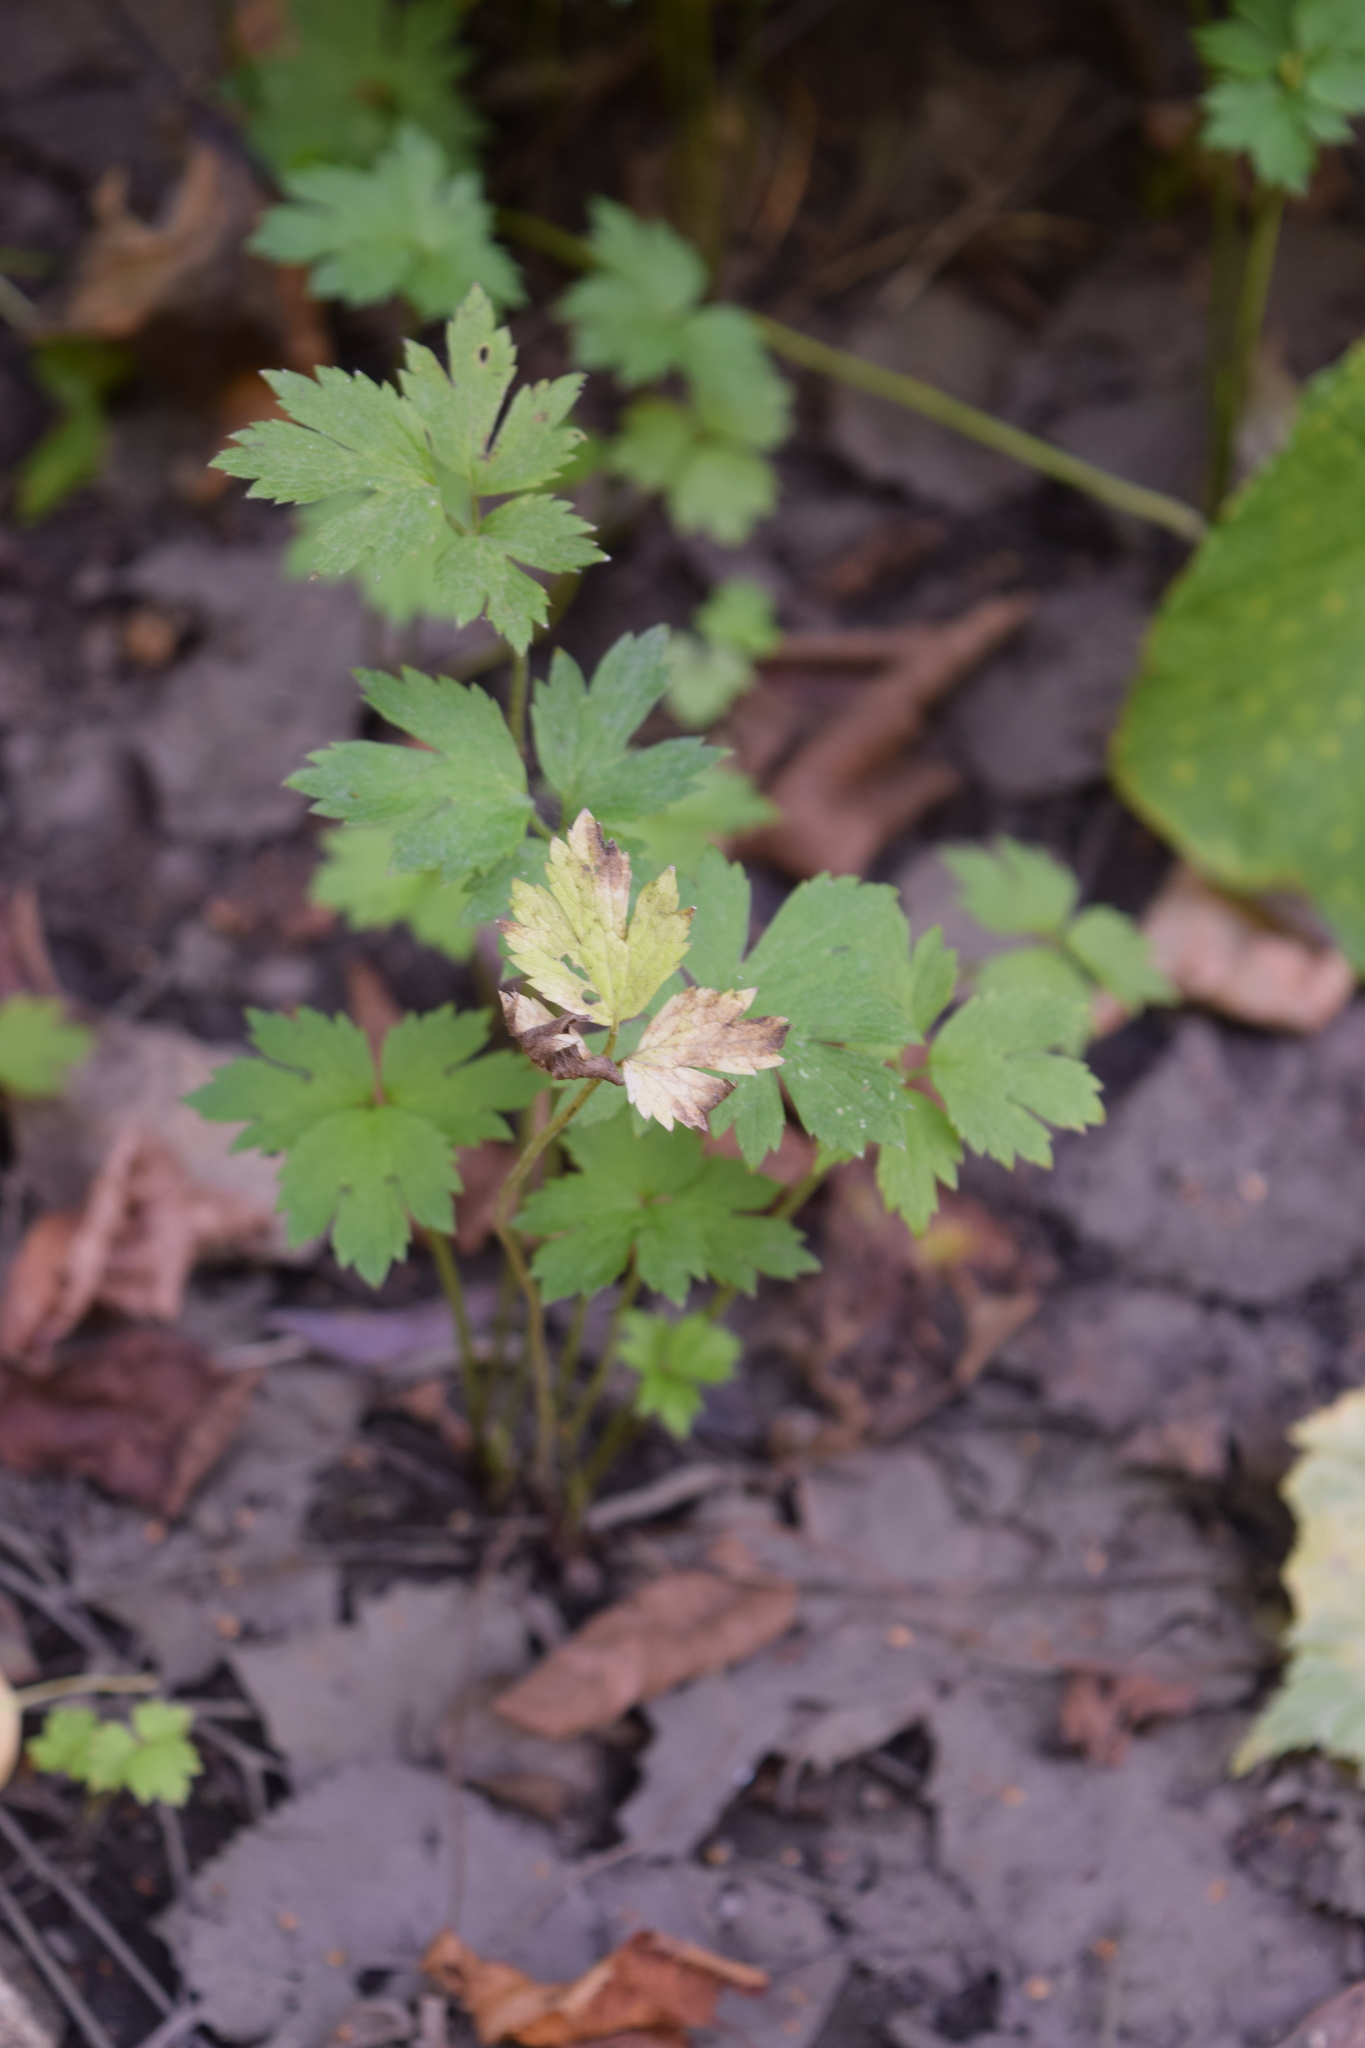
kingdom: Plantae
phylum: Tracheophyta
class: Magnoliopsida
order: Ranunculales
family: Ranunculaceae
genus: Ranunculus
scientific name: Ranunculus repens
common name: Creeping buttercup
